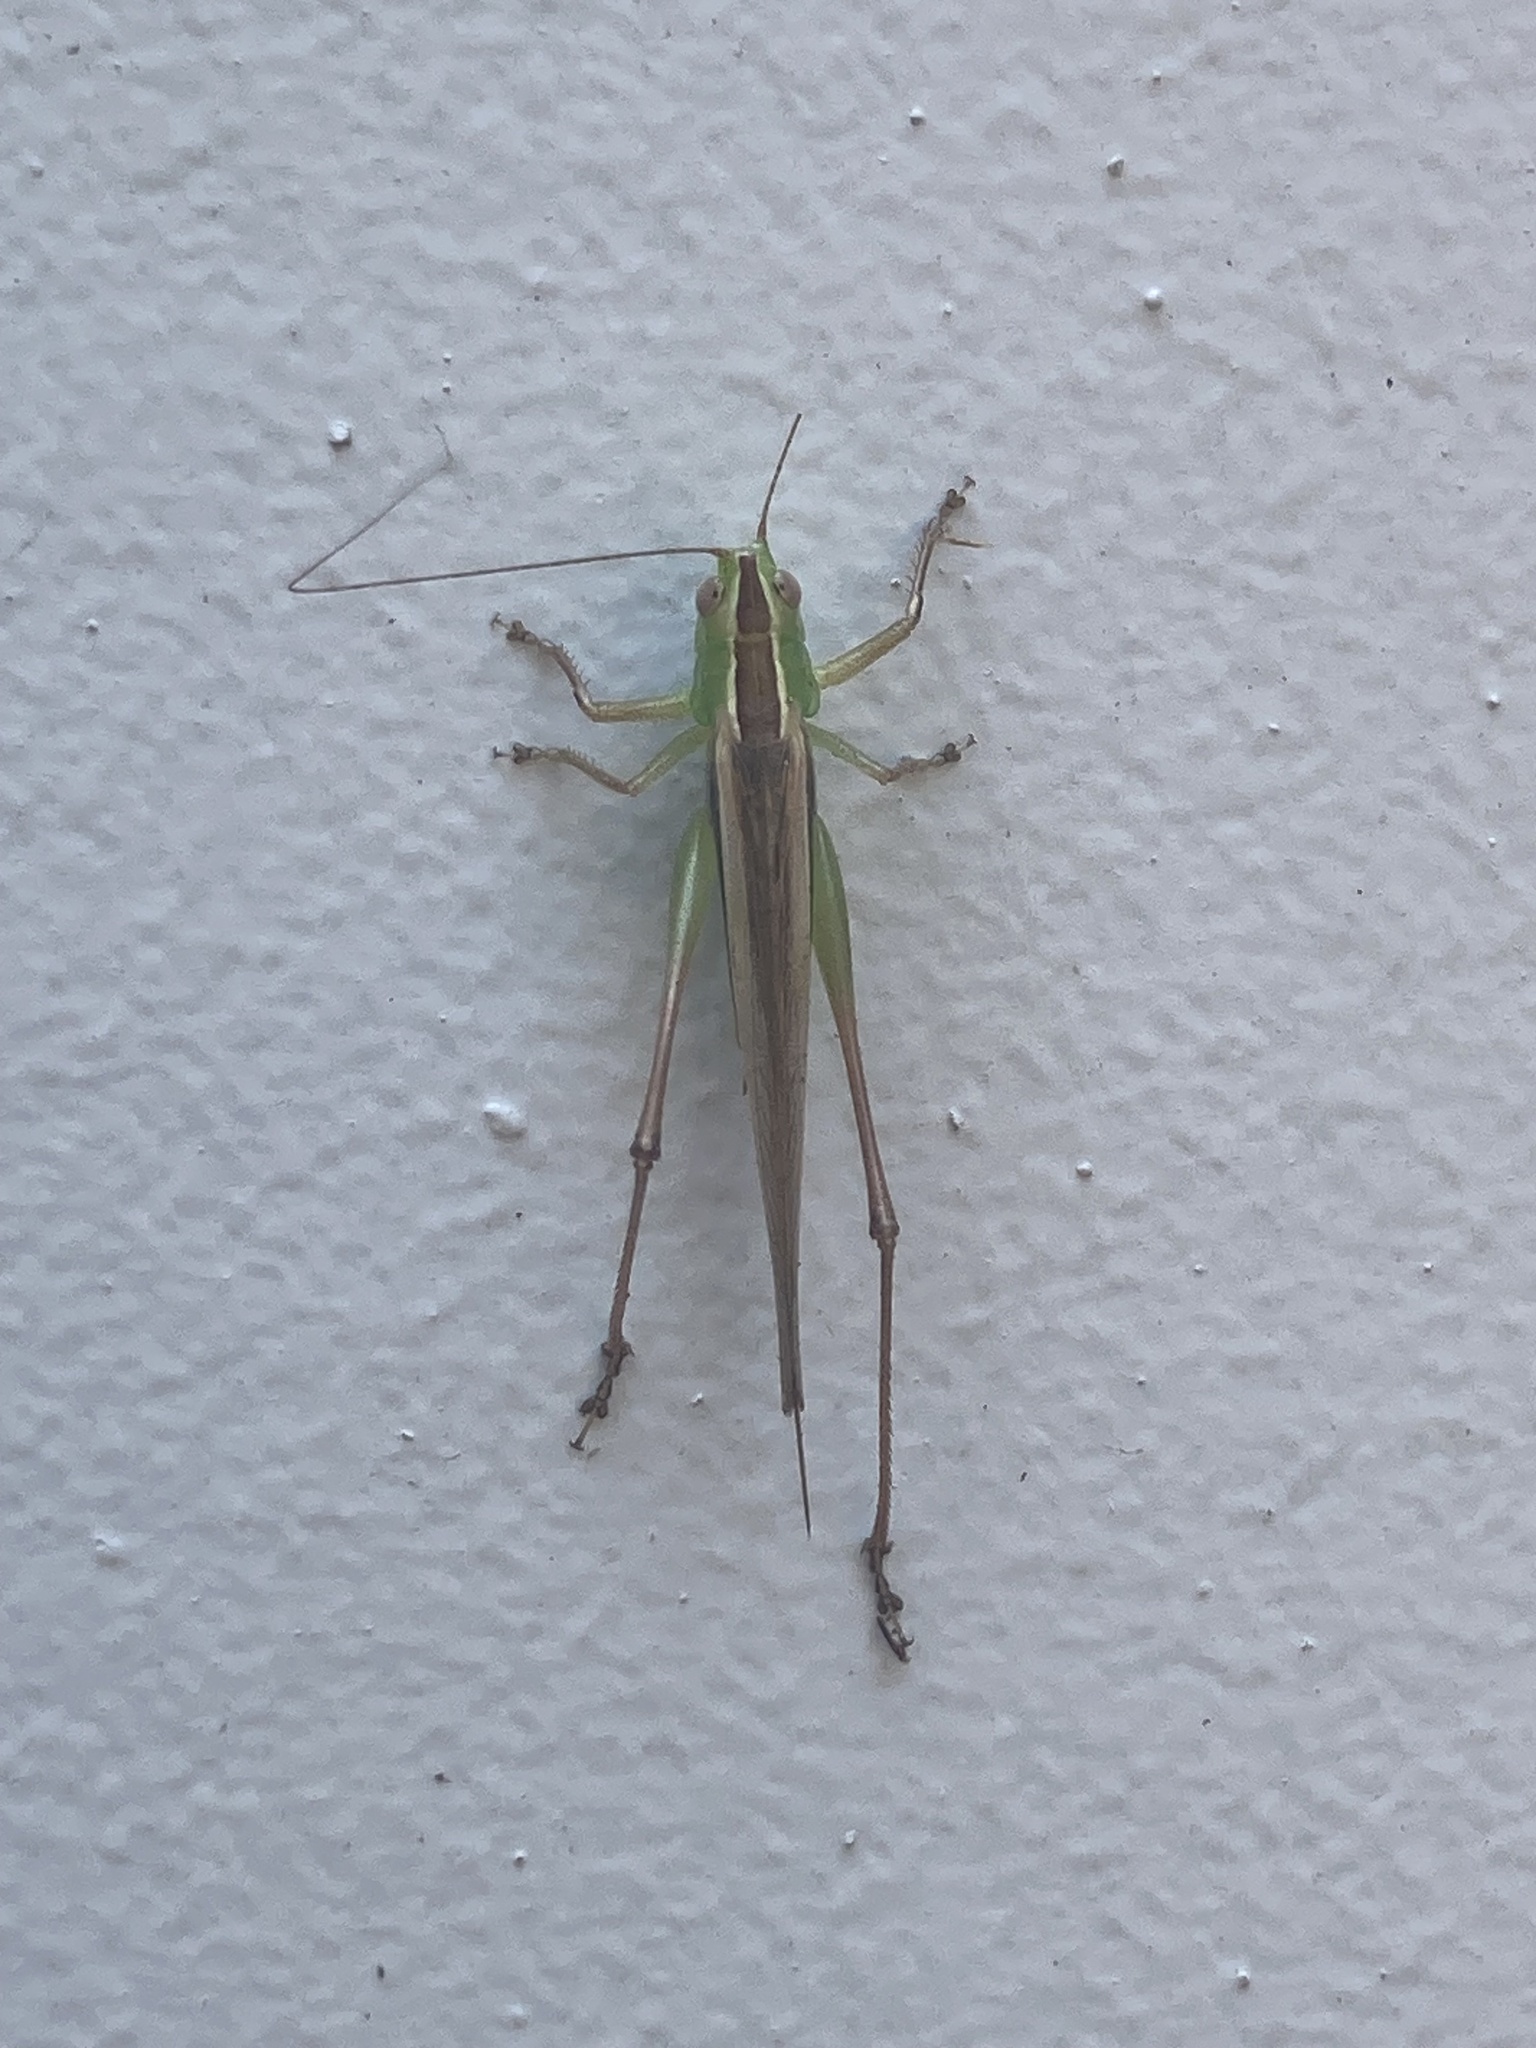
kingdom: Animalia
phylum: Arthropoda
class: Insecta
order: Orthoptera
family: Tettigoniidae
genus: Conocephalus
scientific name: Conocephalus albescens
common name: Whitish meadow katydid
